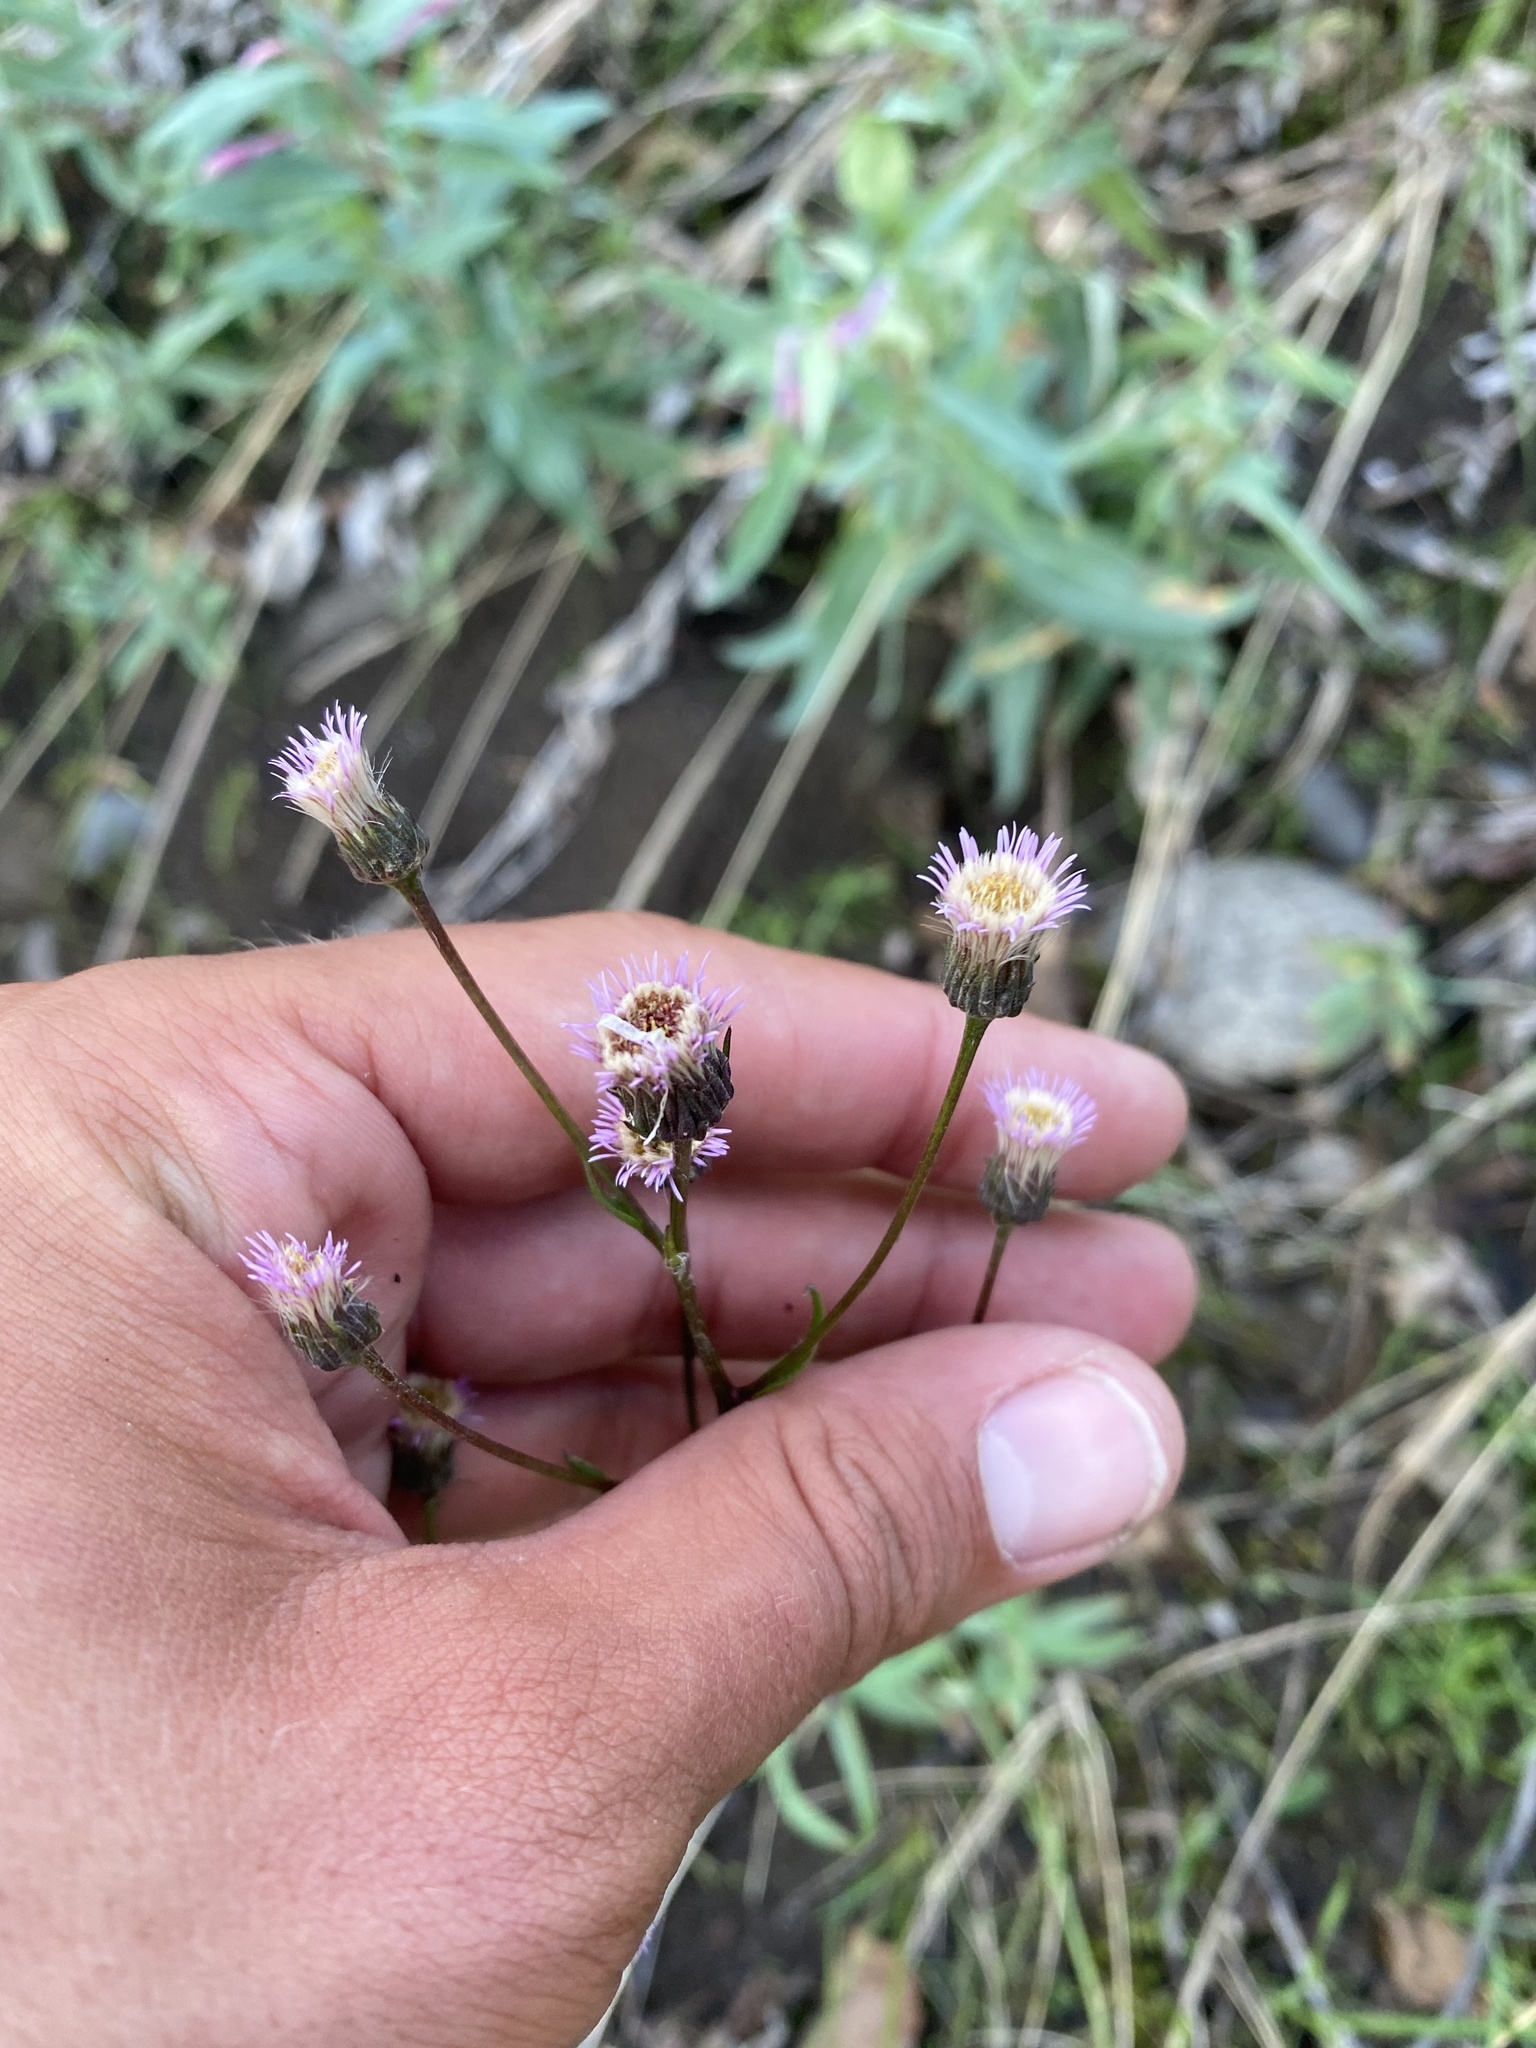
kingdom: Plantae
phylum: Tracheophyta
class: Magnoliopsida
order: Asterales
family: Asteraceae
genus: Erigeron
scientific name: Erigeron acris
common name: Blue fleabane
